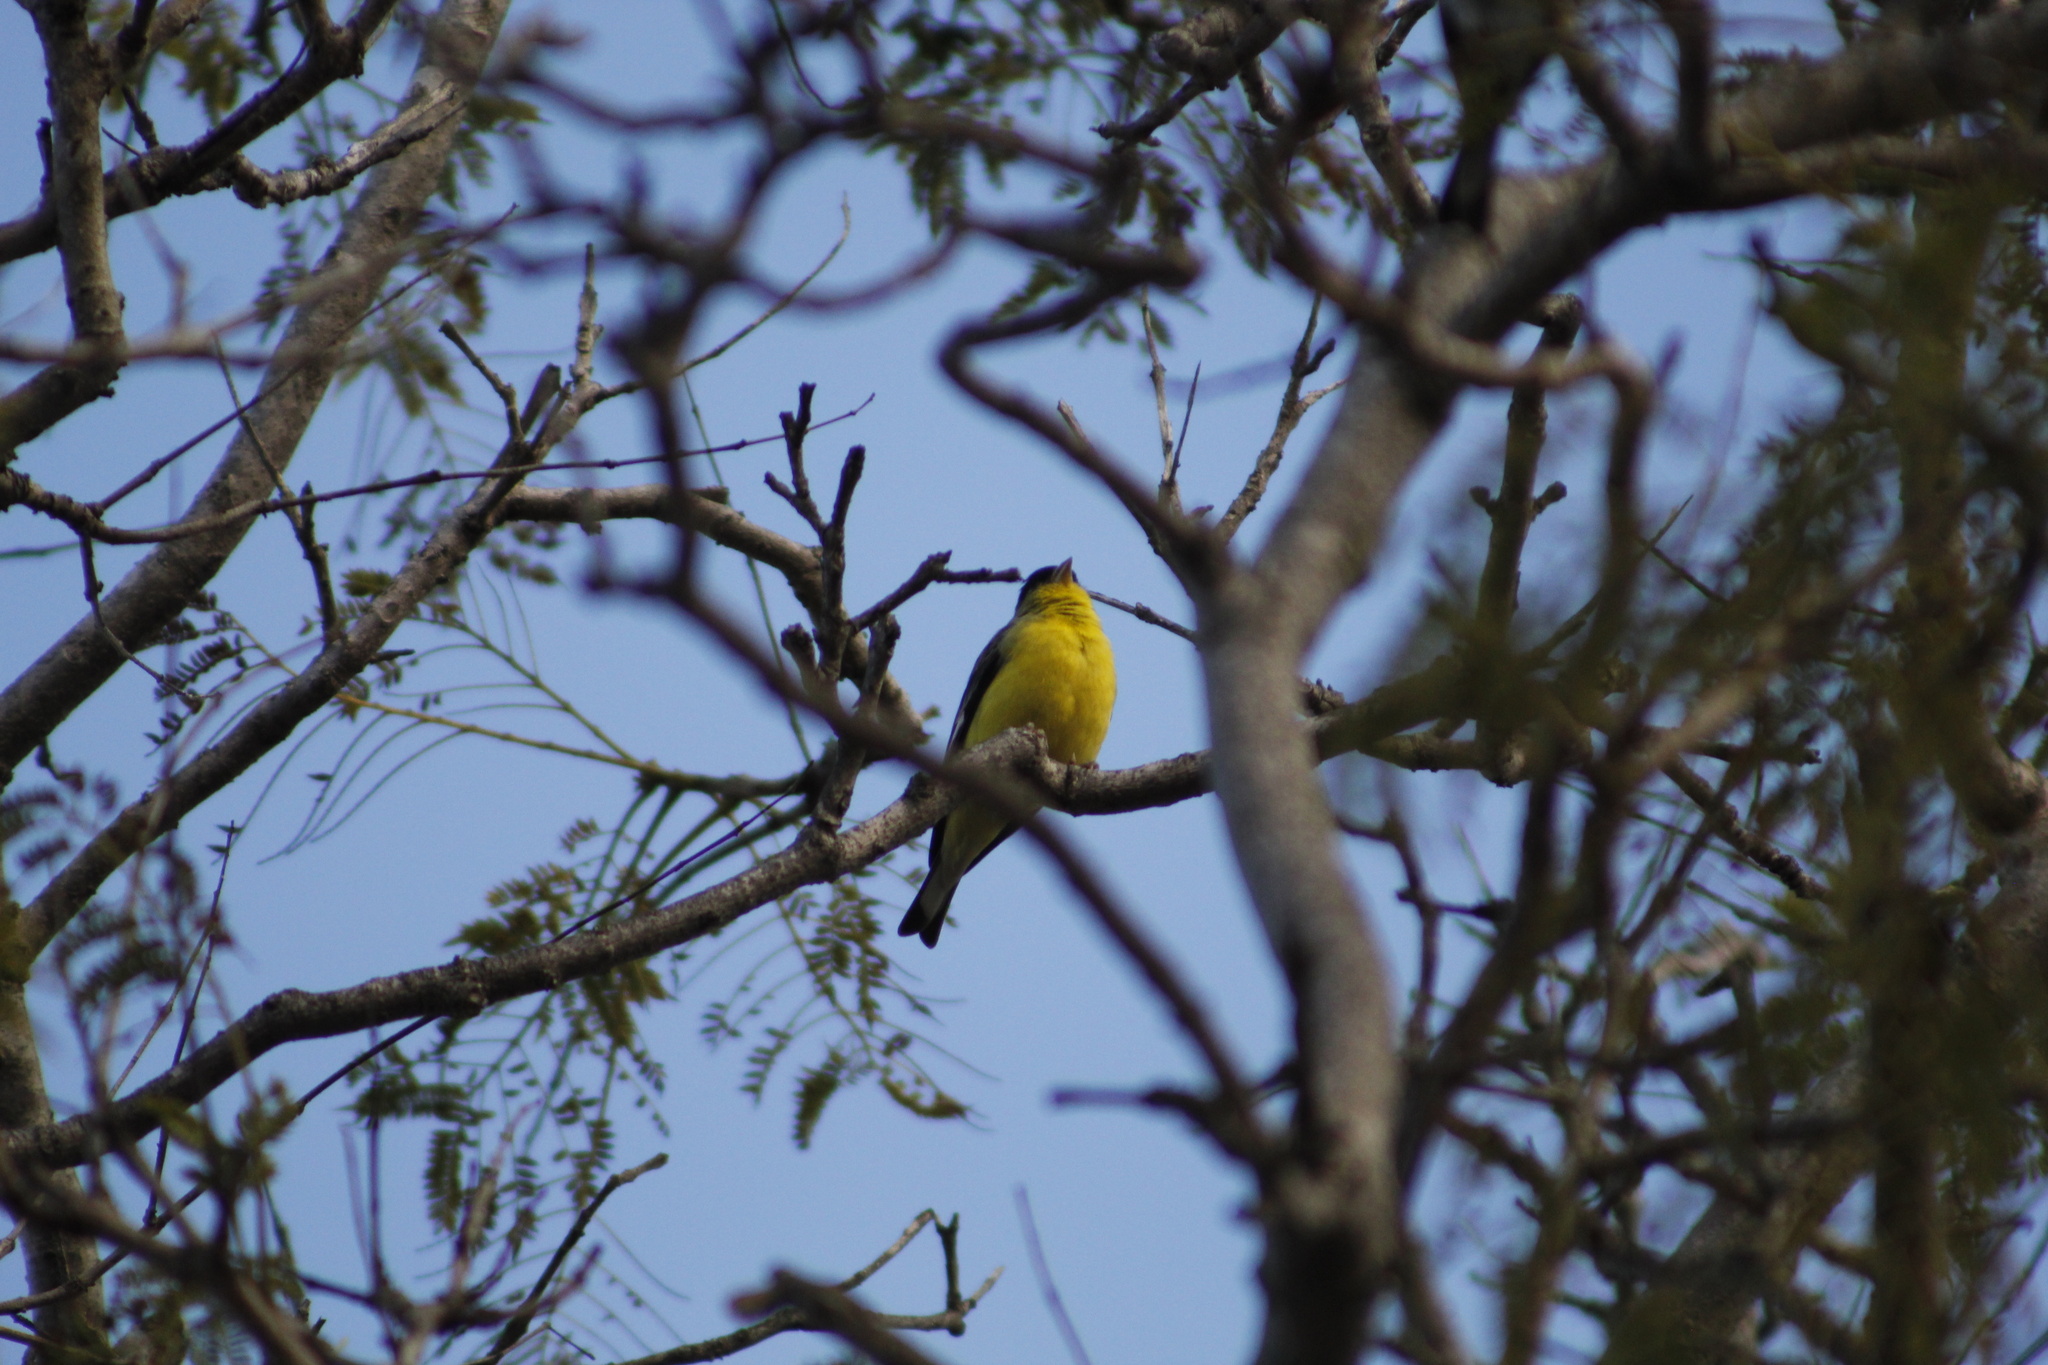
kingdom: Animalia
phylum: Chordata
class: Aves
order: Passeriformes
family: Fringillidae
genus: Spinus
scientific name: Spinus psaltria
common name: Lesser goldfinch
